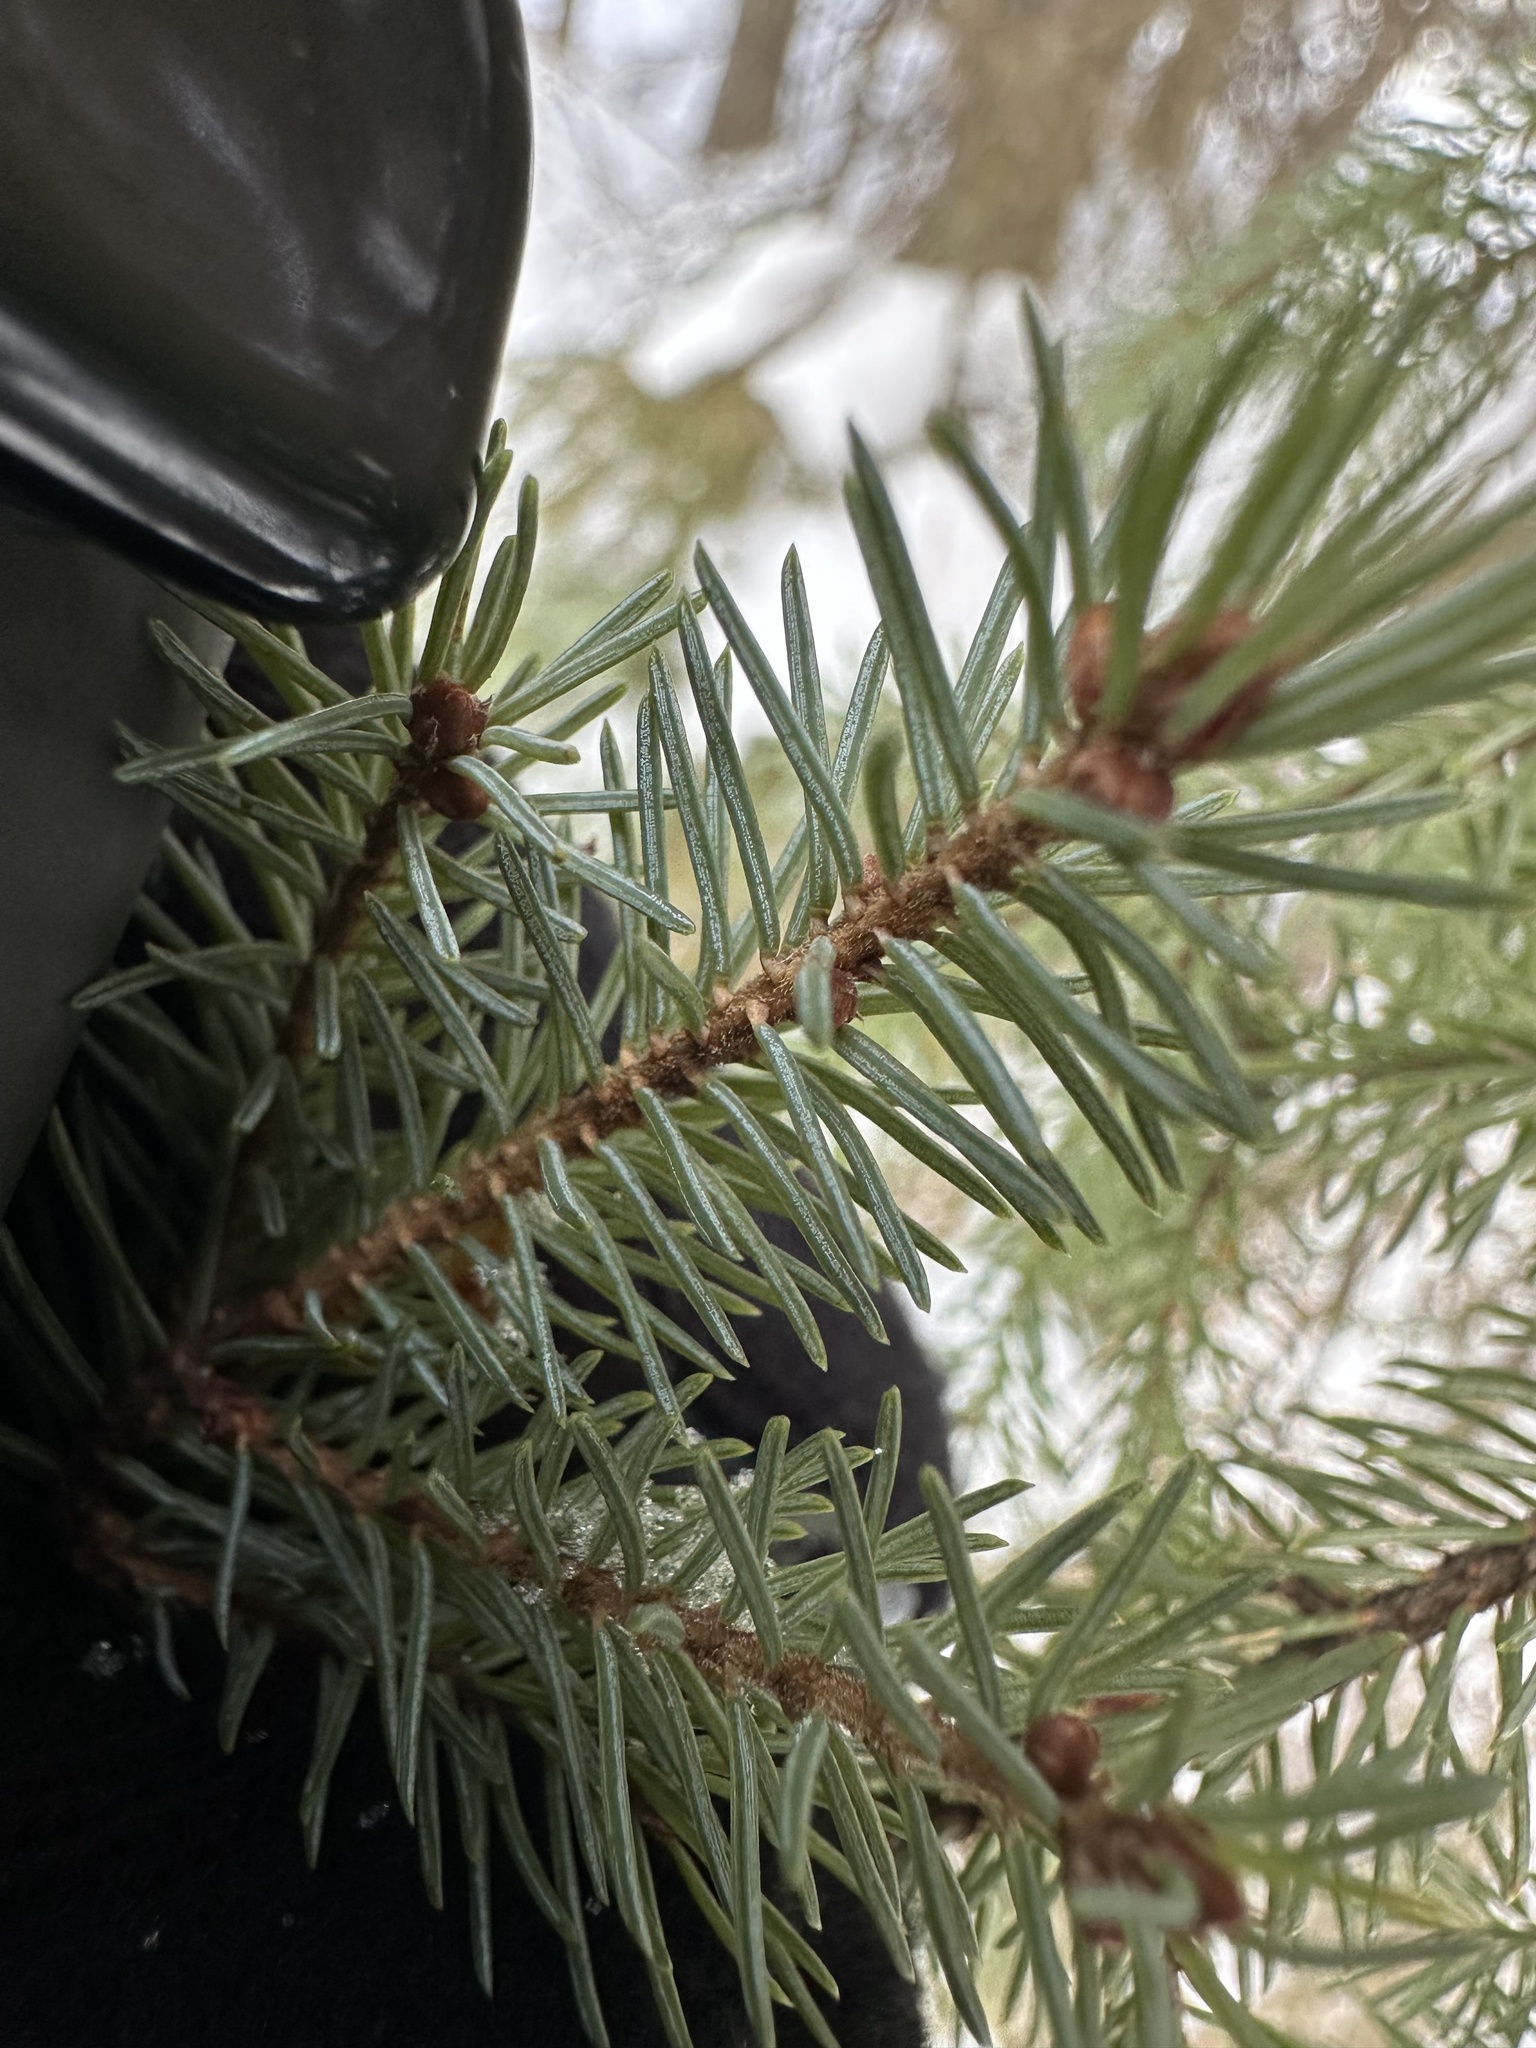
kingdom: Plantae
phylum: Tracheophyta
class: Pinopsida
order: Pinales
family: Pinaceae
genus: Picea
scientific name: Picea mariana
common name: Black spruce
